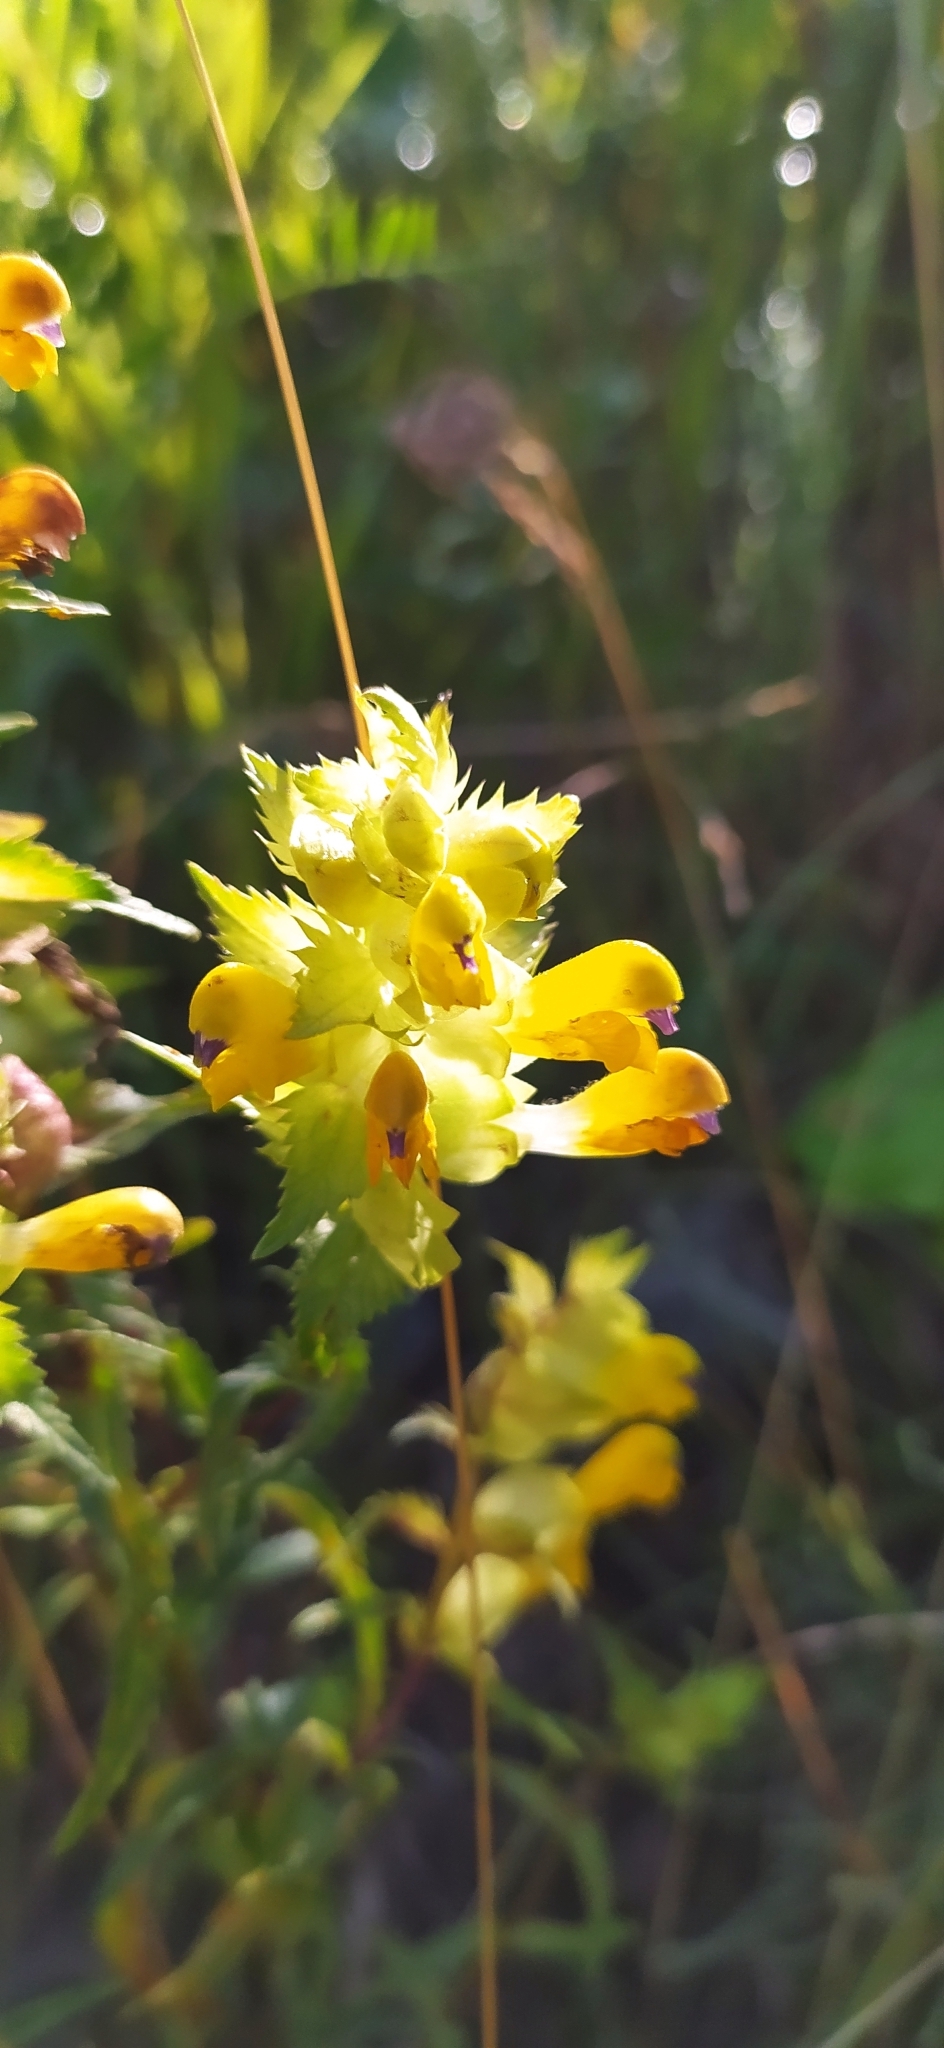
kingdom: Plantae
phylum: Tracheophyta
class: Magnoliopsida
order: Lamiales
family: Orobanchaceae
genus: Rhinanthus
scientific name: Rhinanthus serotinus
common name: Late-flowering yellow rattle
